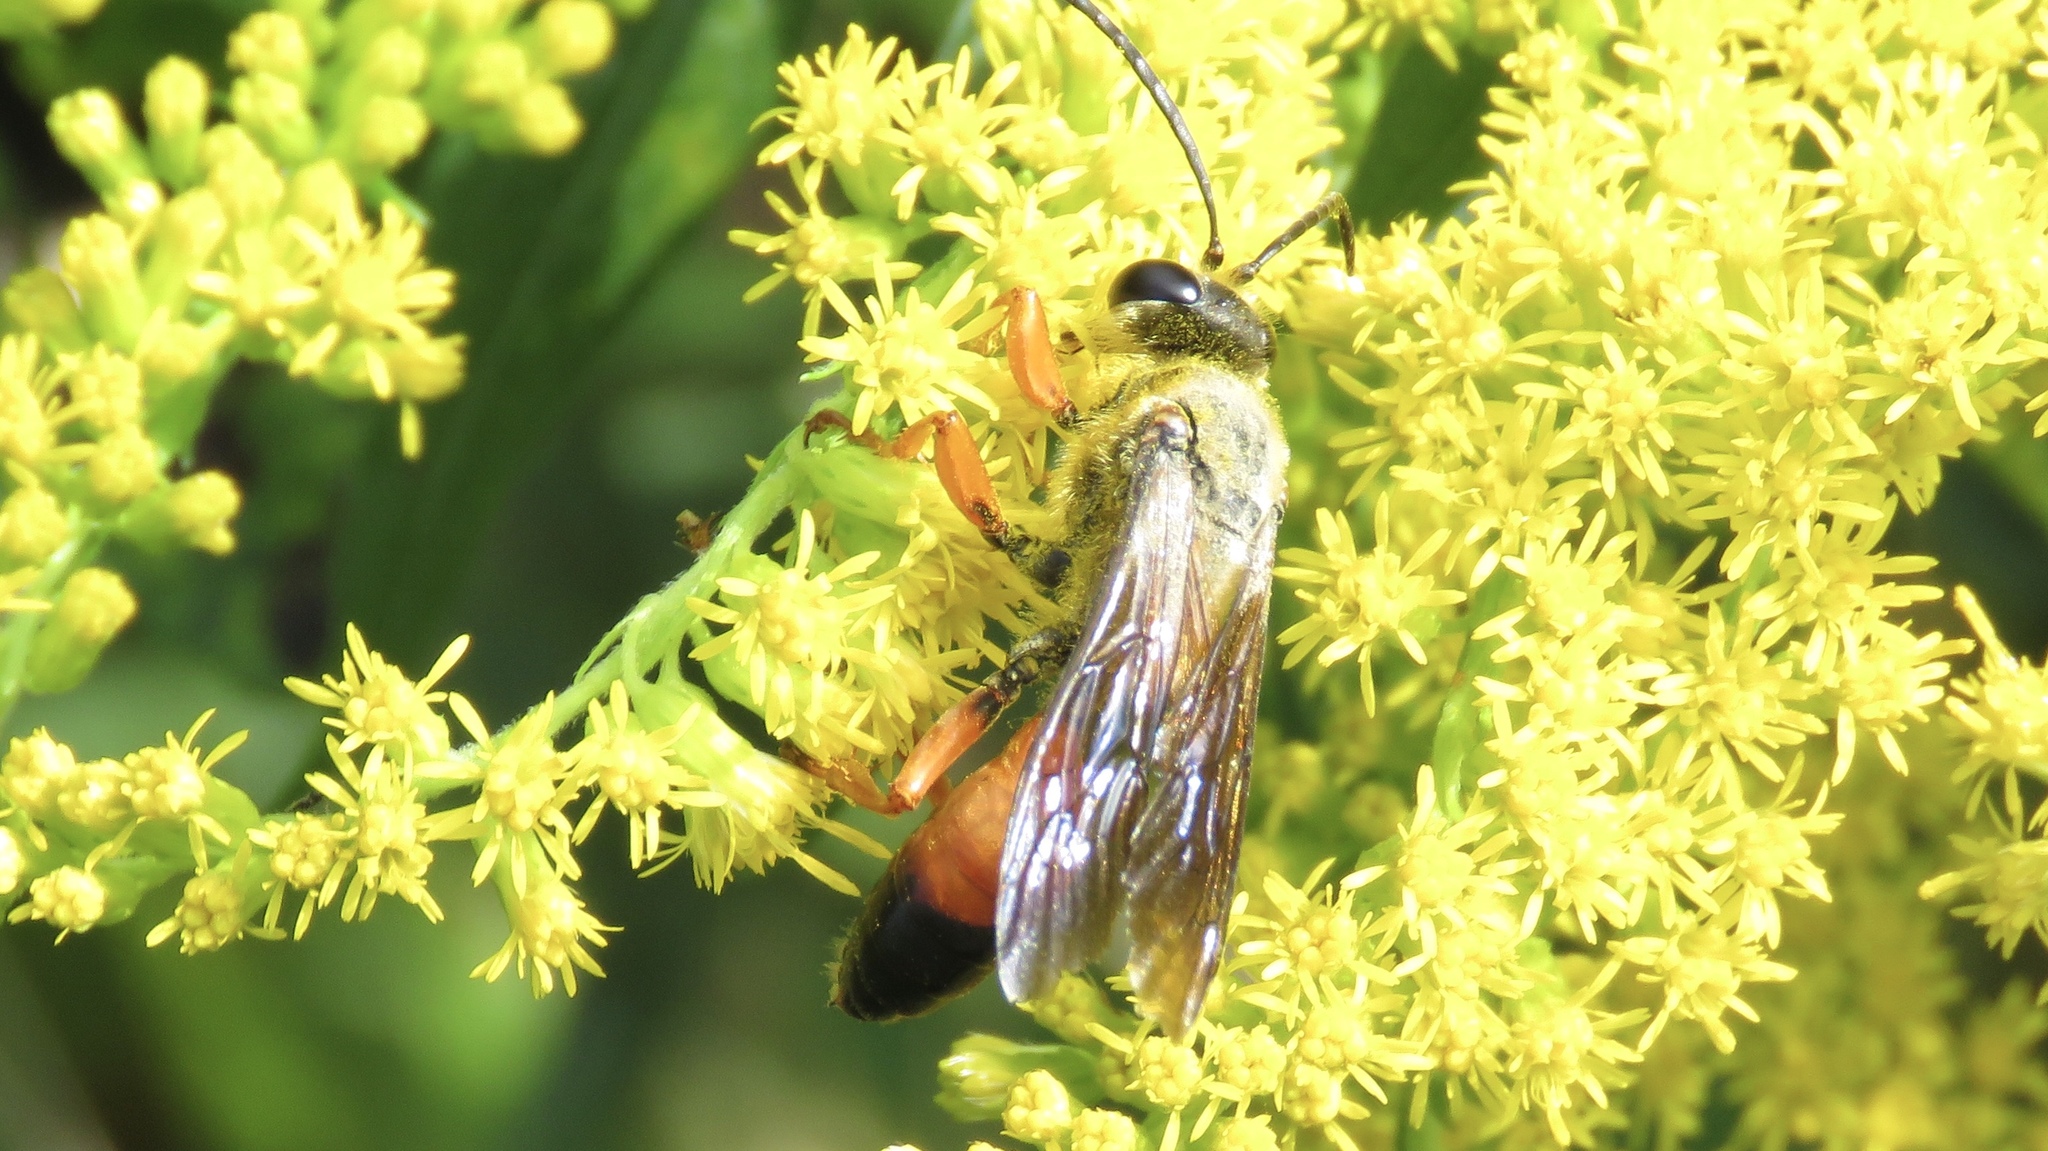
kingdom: Animalia
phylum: Arthropoda
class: Insecta
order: Hymenoptera
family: Sphecidae
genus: Sphex
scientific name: Sphex ichneumoneus
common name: Great golden digger wasp
